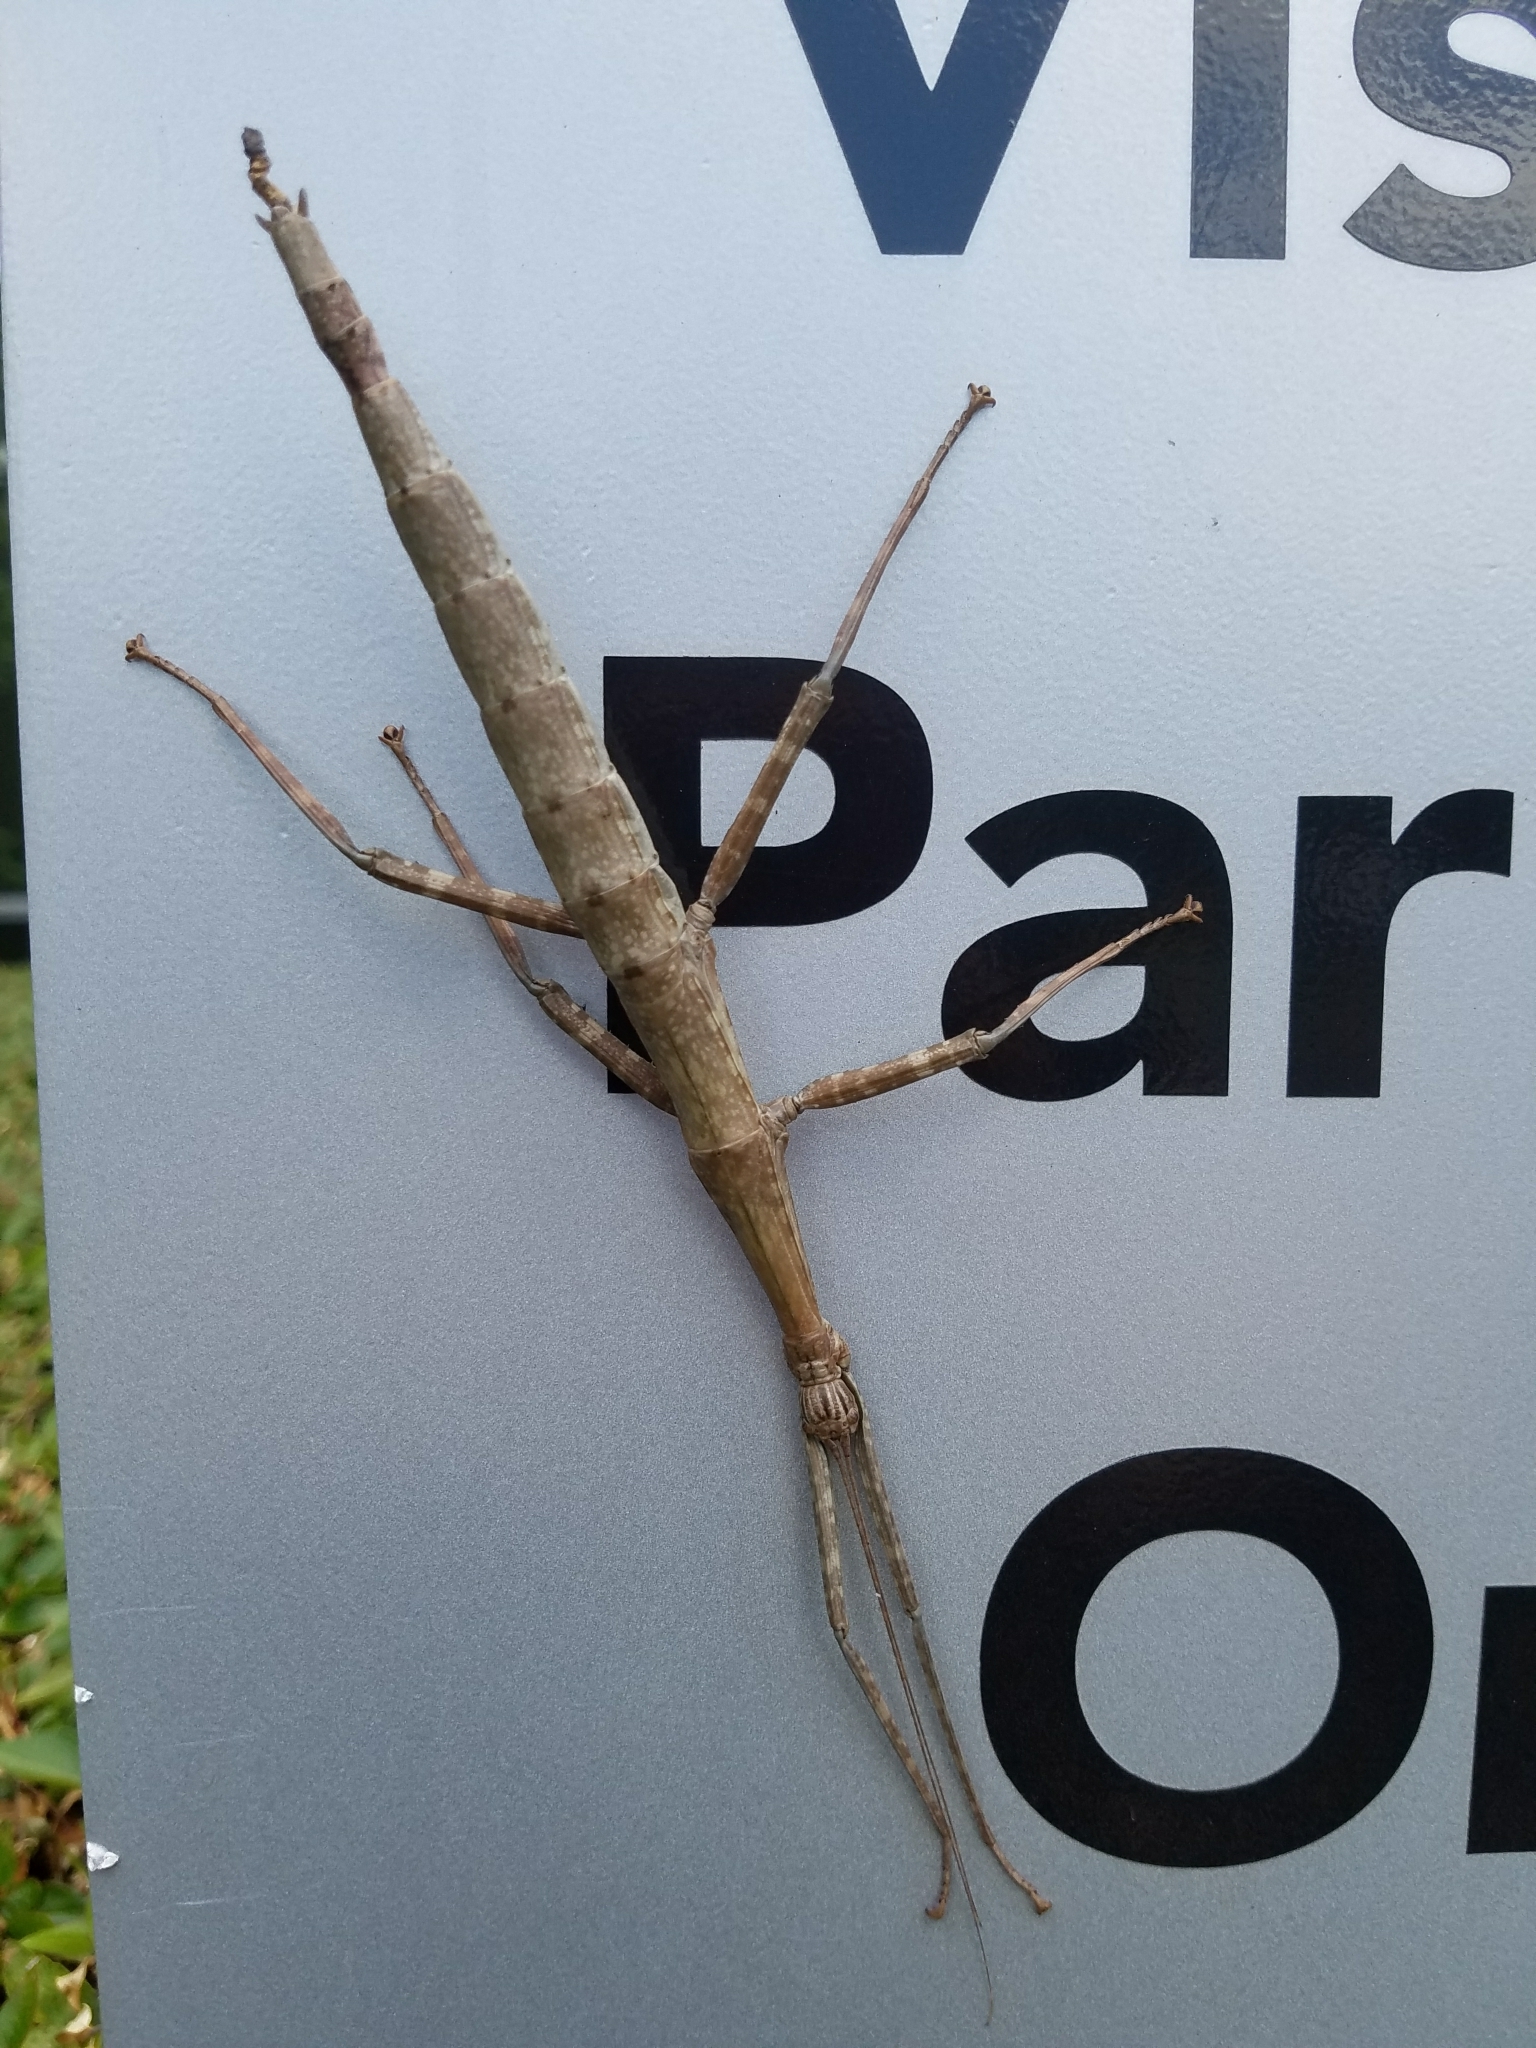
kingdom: Animalia
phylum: Arthropoda
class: Insecta
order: Phasmida
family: Diapheromeridae
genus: Megaphasma
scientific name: Megaphasma denticrus
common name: Giant walkingstick
